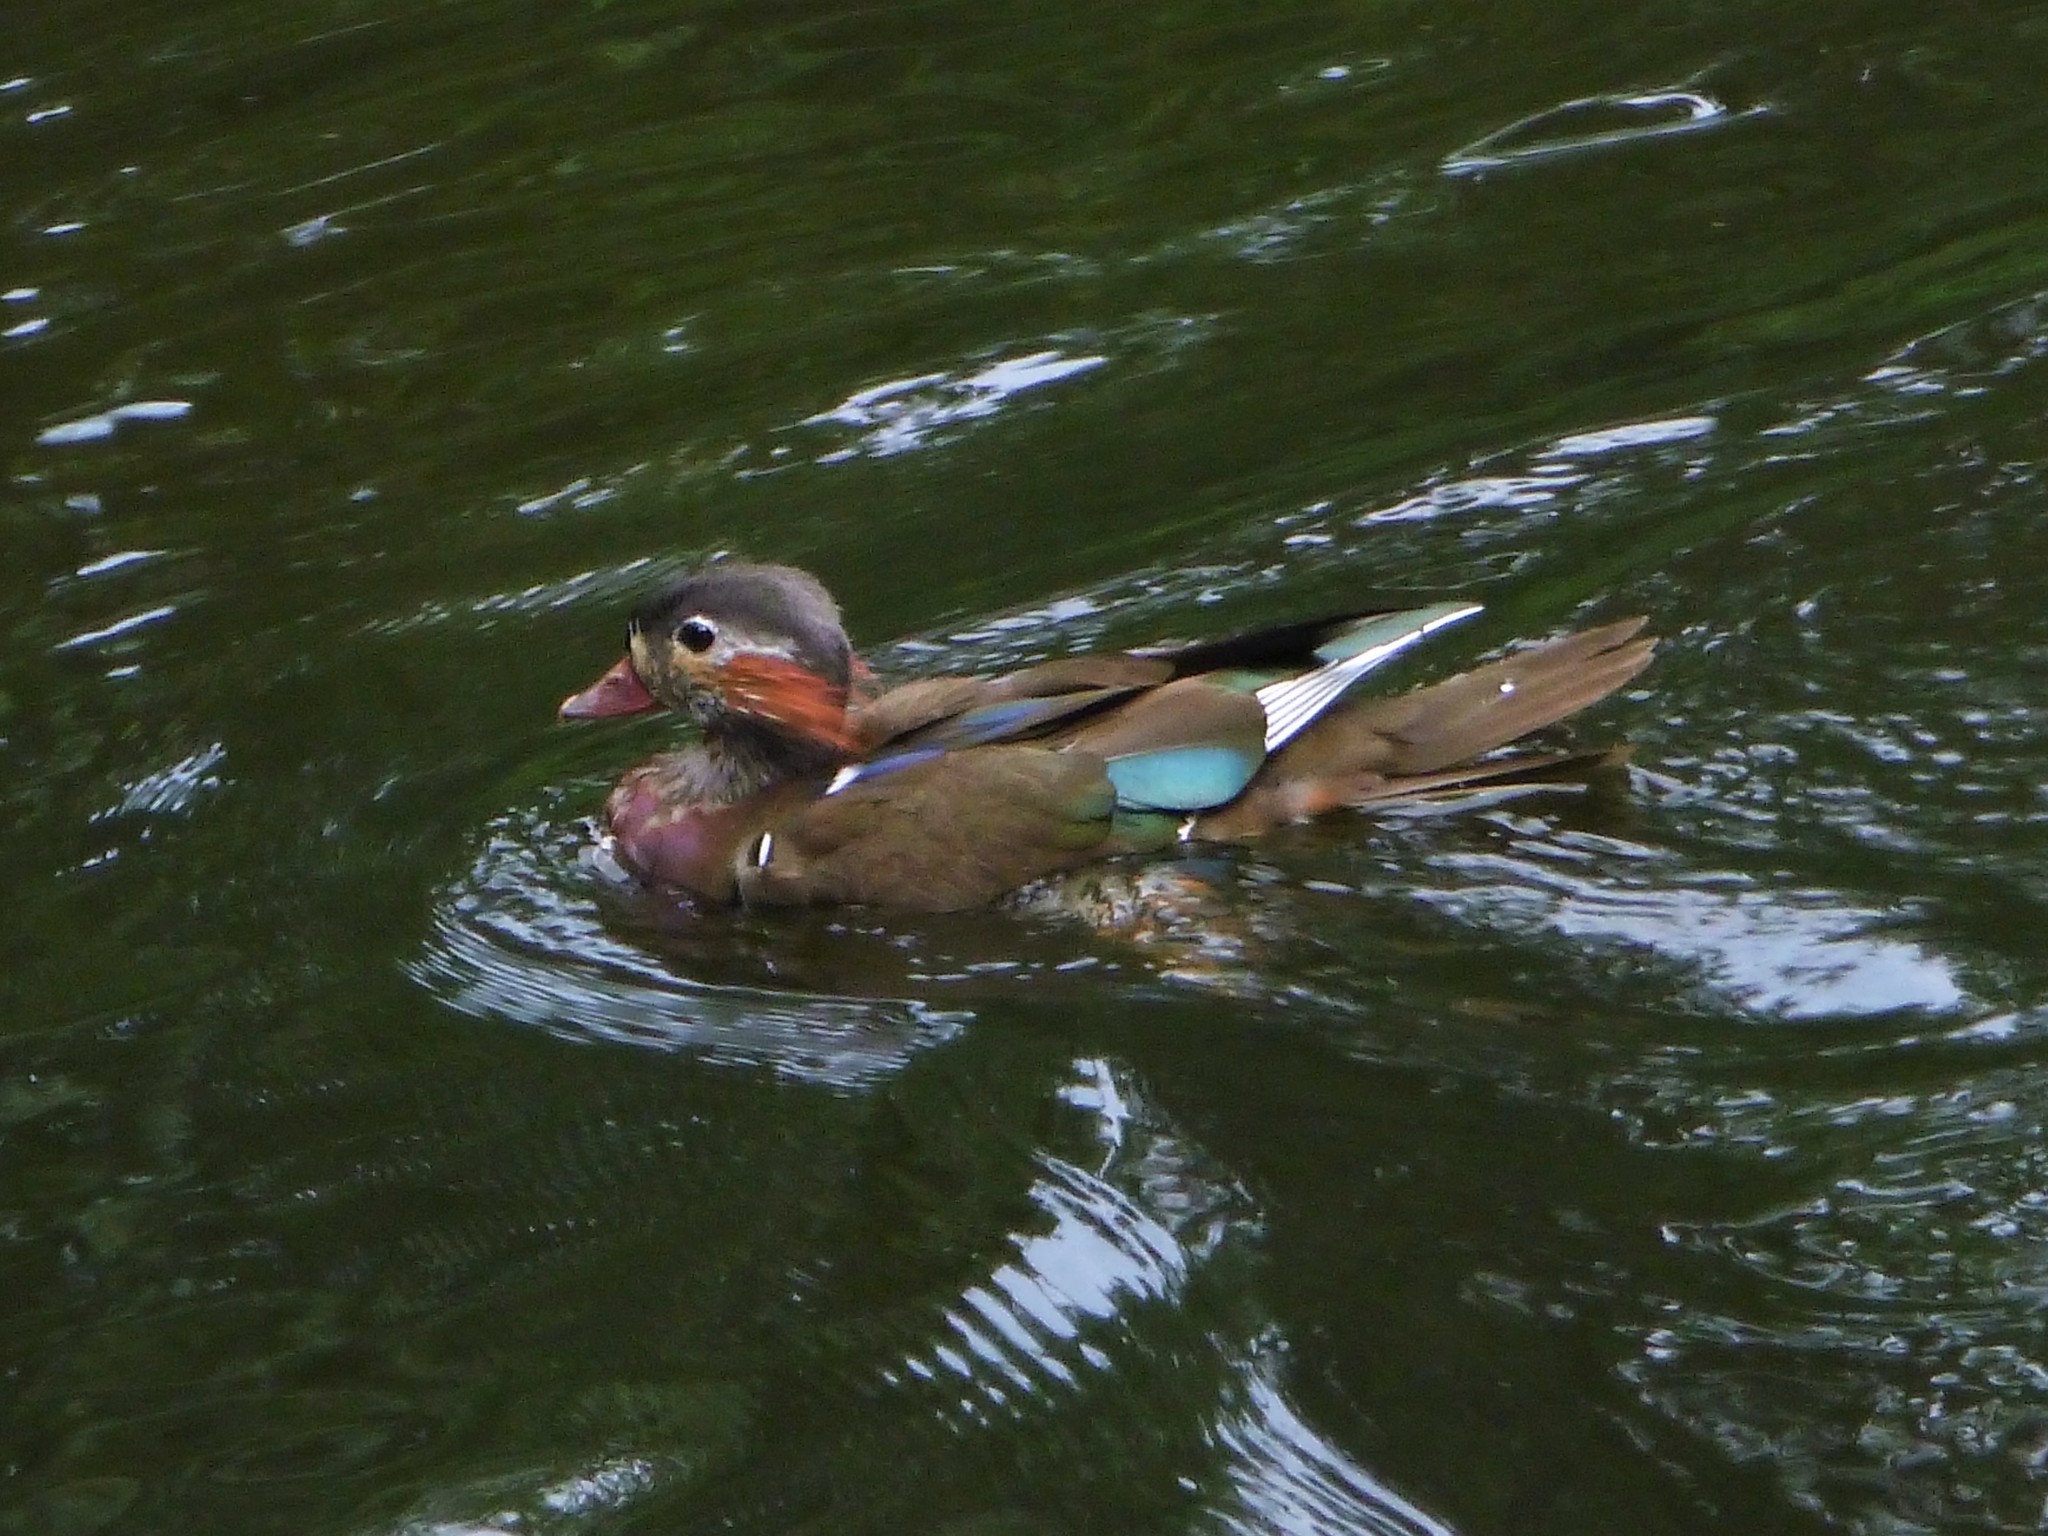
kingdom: Animalia
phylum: Chordata
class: Aves
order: Anseriformes
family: Anatidae
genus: Aix
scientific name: Aix galericulata
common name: Mandarin duck
